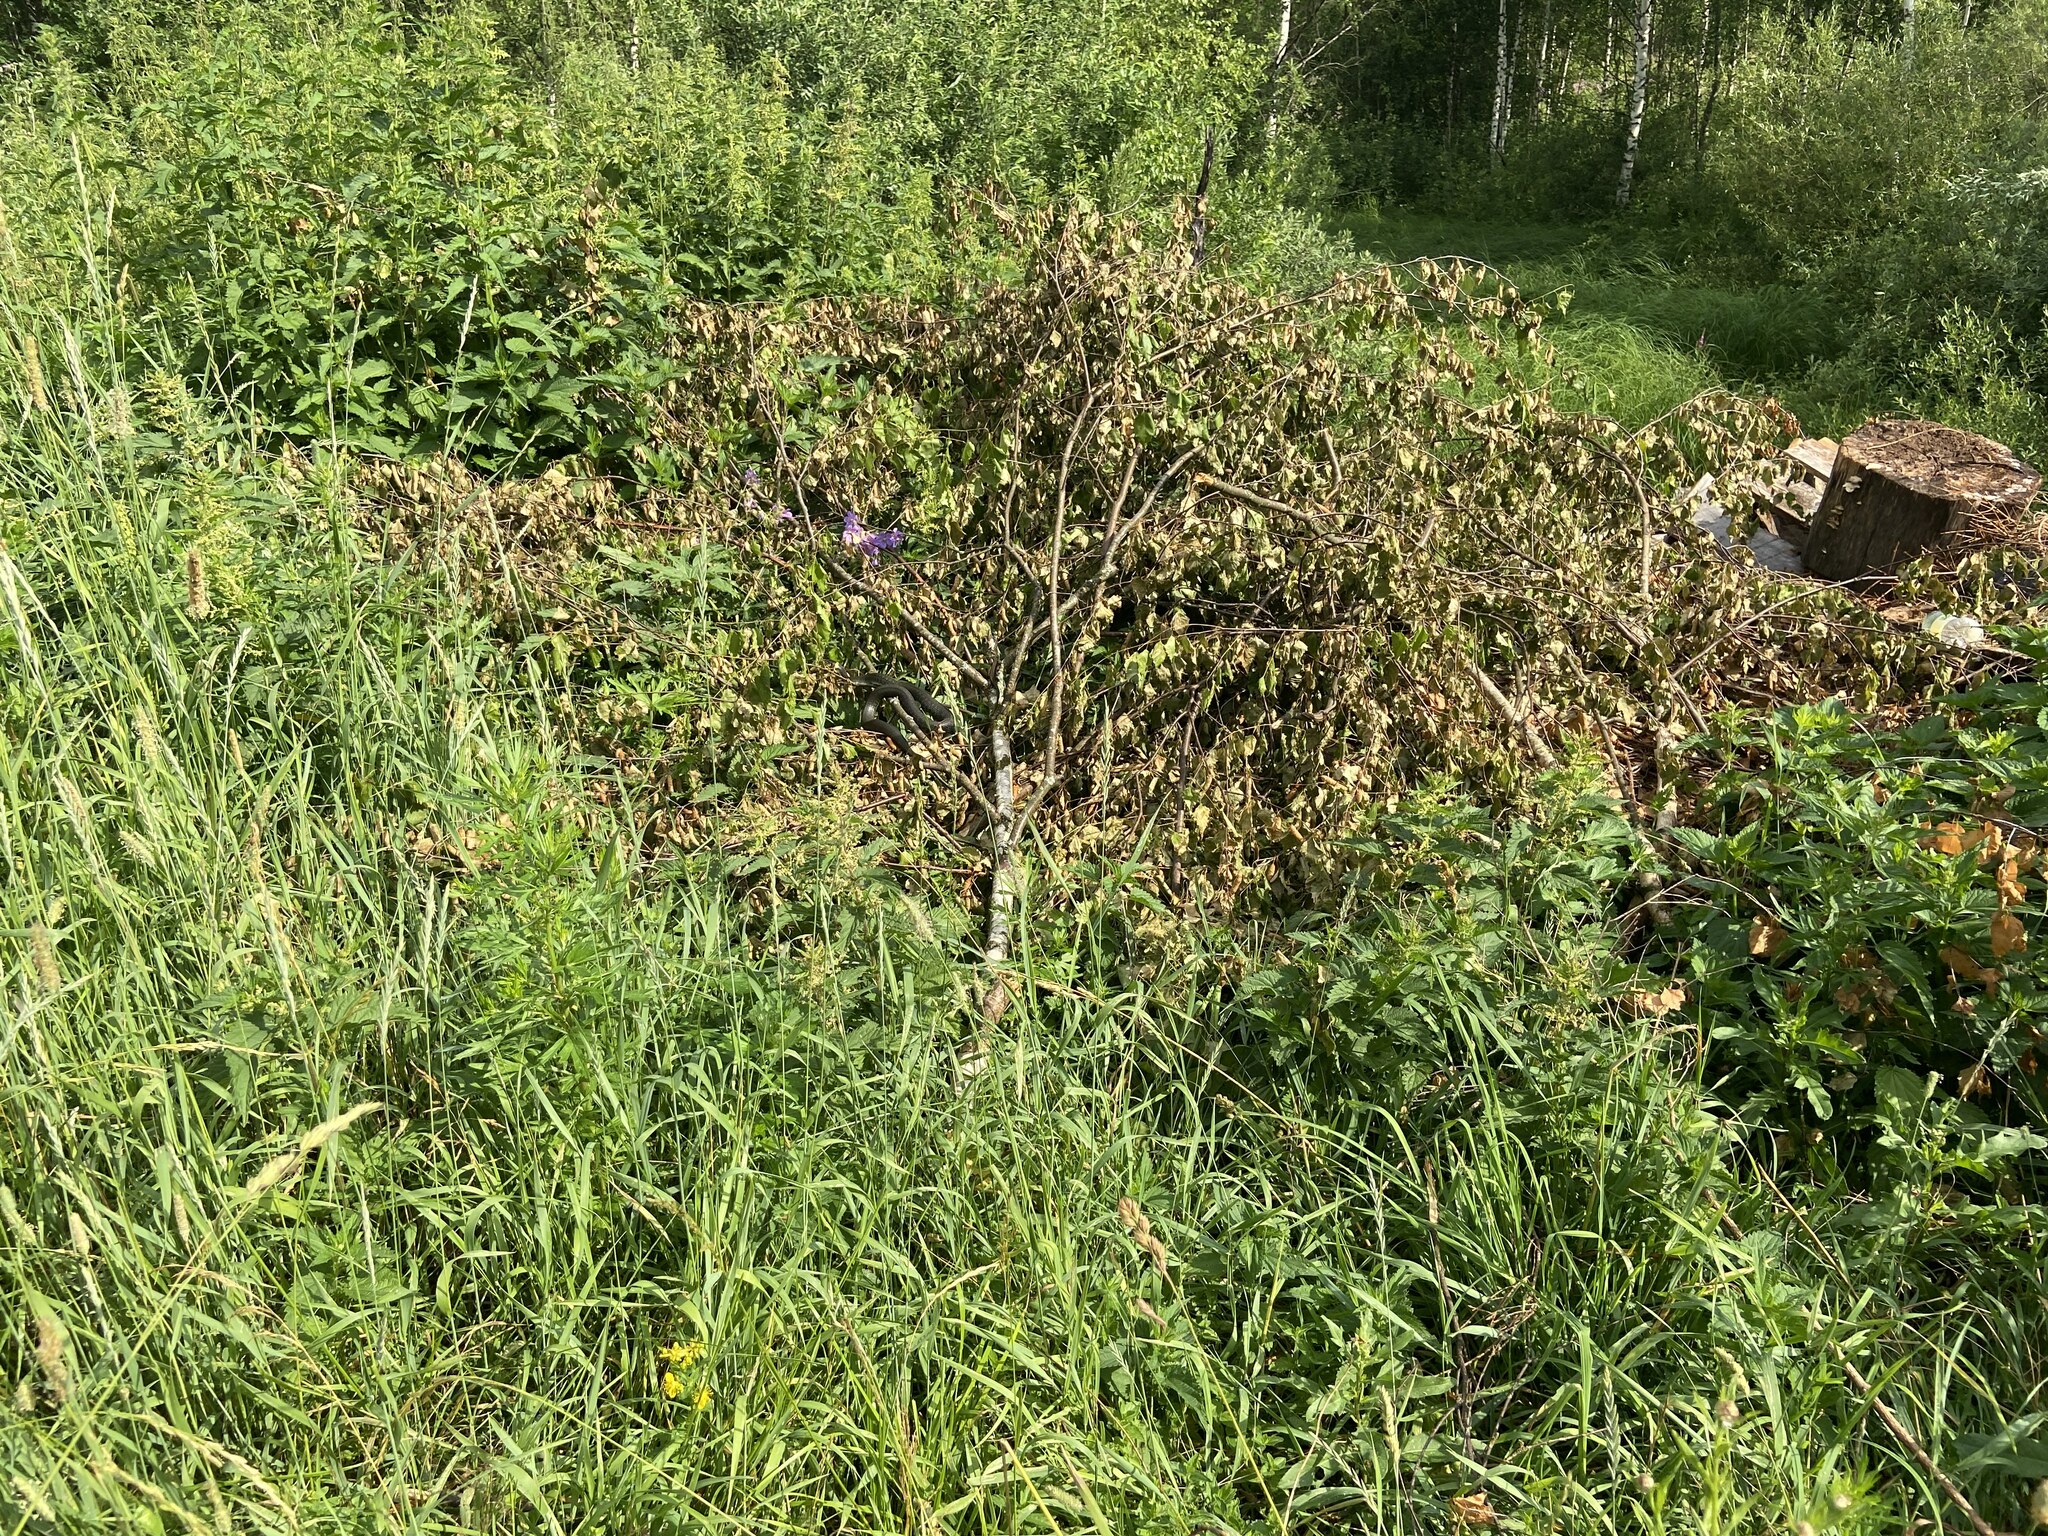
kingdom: Plantae
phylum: Tracheophyta
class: Magnoliopsida
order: Rosales
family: Urticaceae
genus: Urtica
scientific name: Urtica dioica
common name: Common nettle
